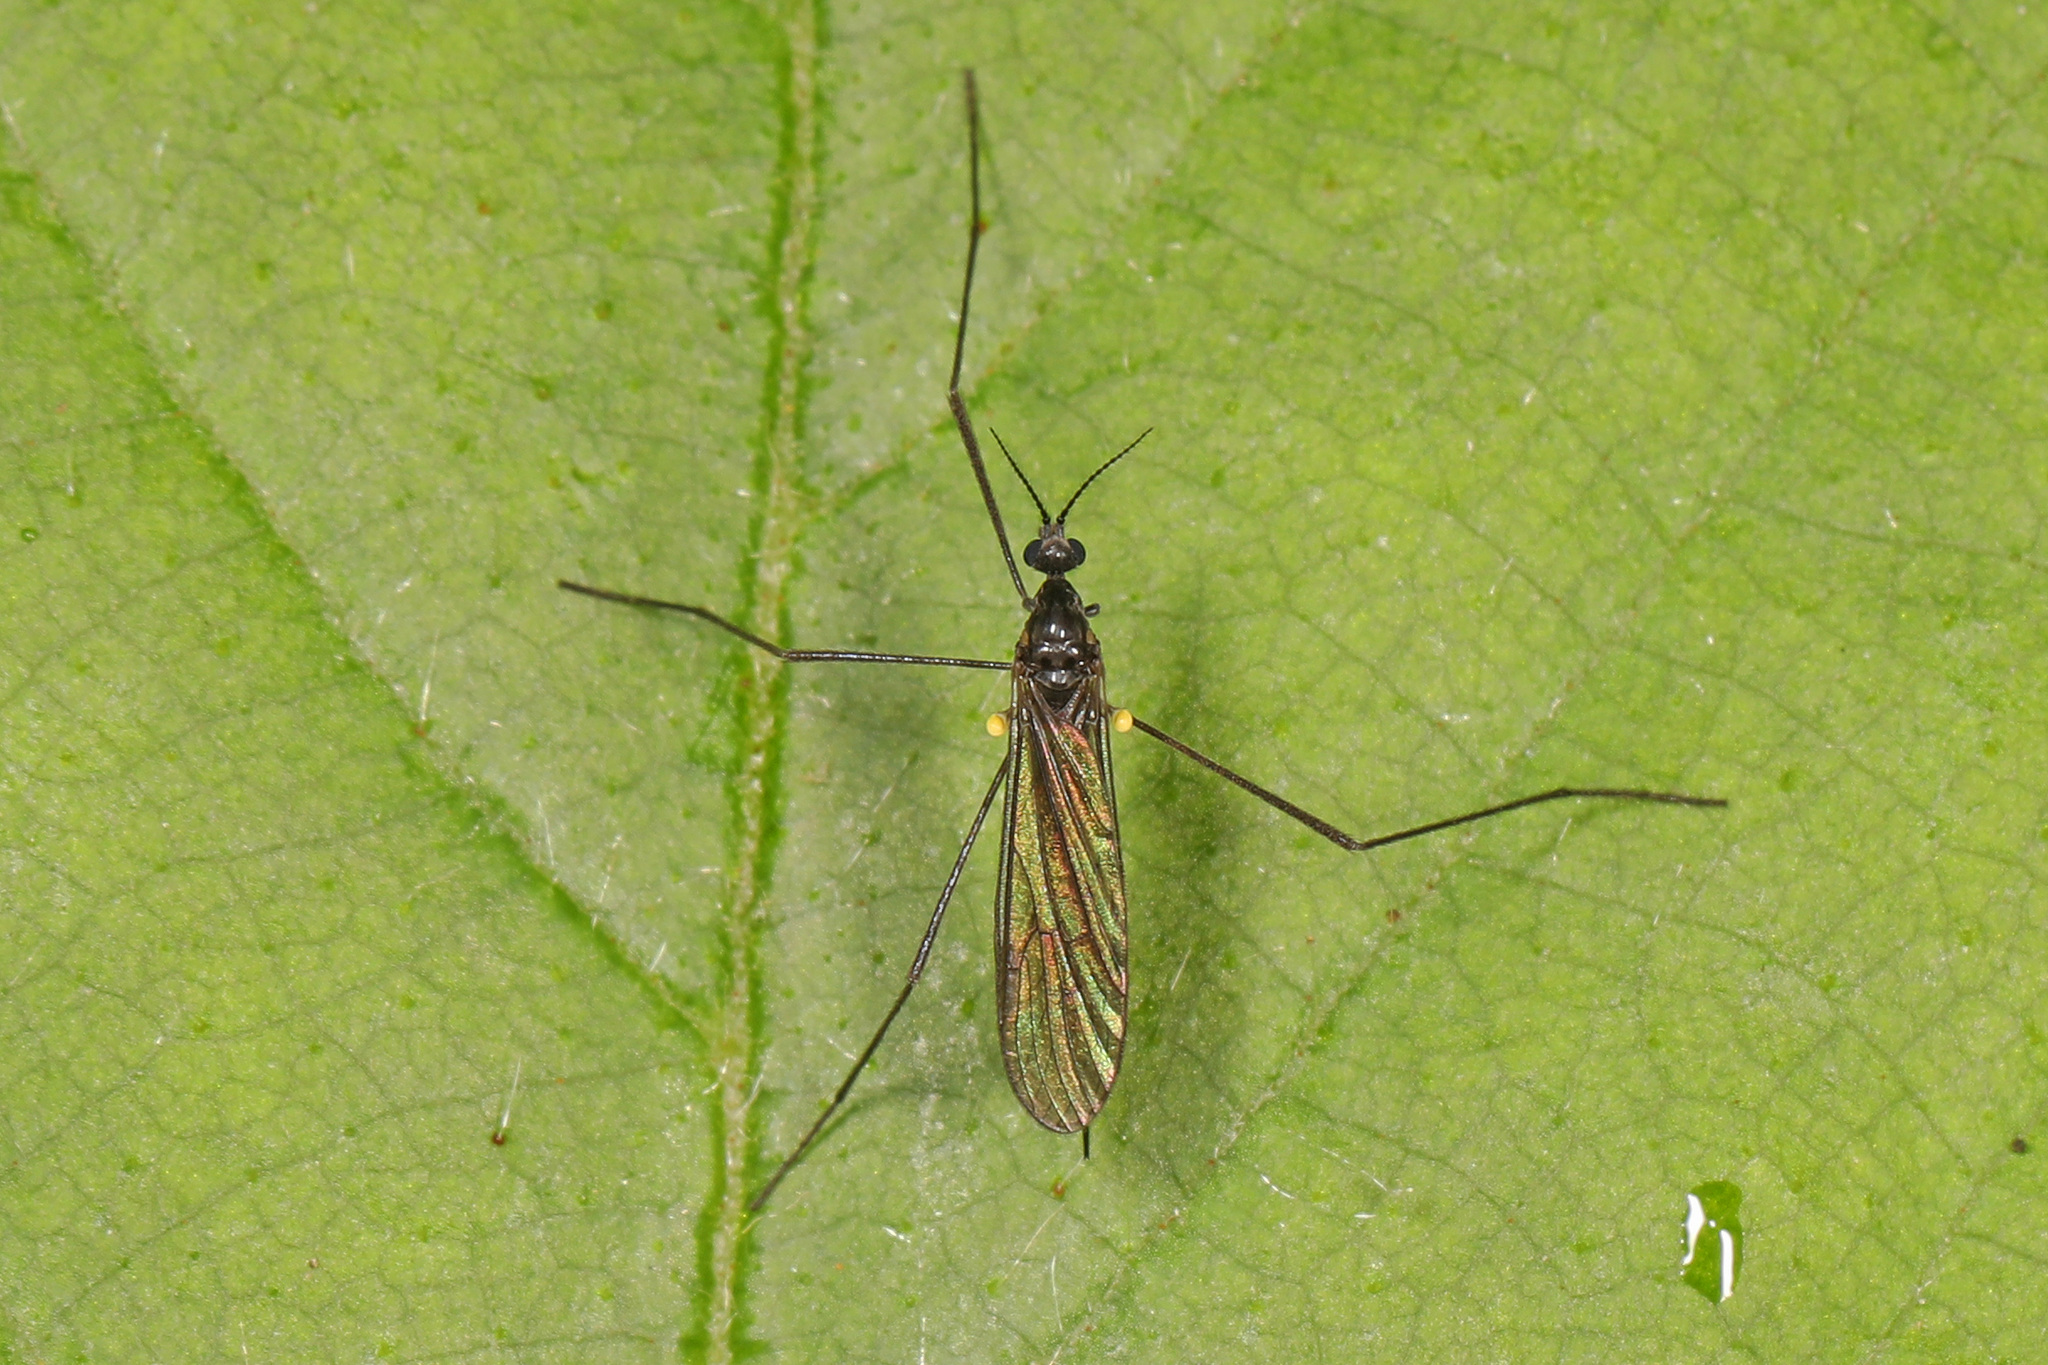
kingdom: Animalia
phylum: Arthropoda
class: Insecta
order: Diptera
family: Limoniidae
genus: Gnophomyia
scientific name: Gnophomyia tristissima
